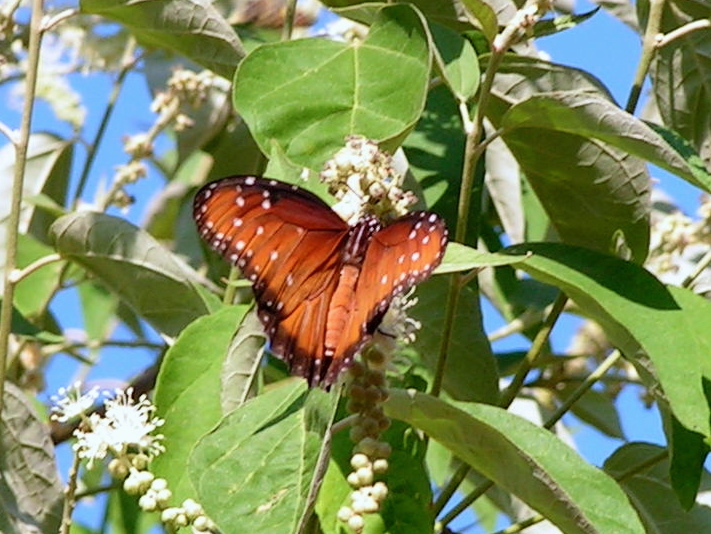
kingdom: Animalia
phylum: Arthropoda
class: Insecta
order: Lepidoptera
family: Nymphalidae
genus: Danaus
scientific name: Danaus gilippus
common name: Queen
